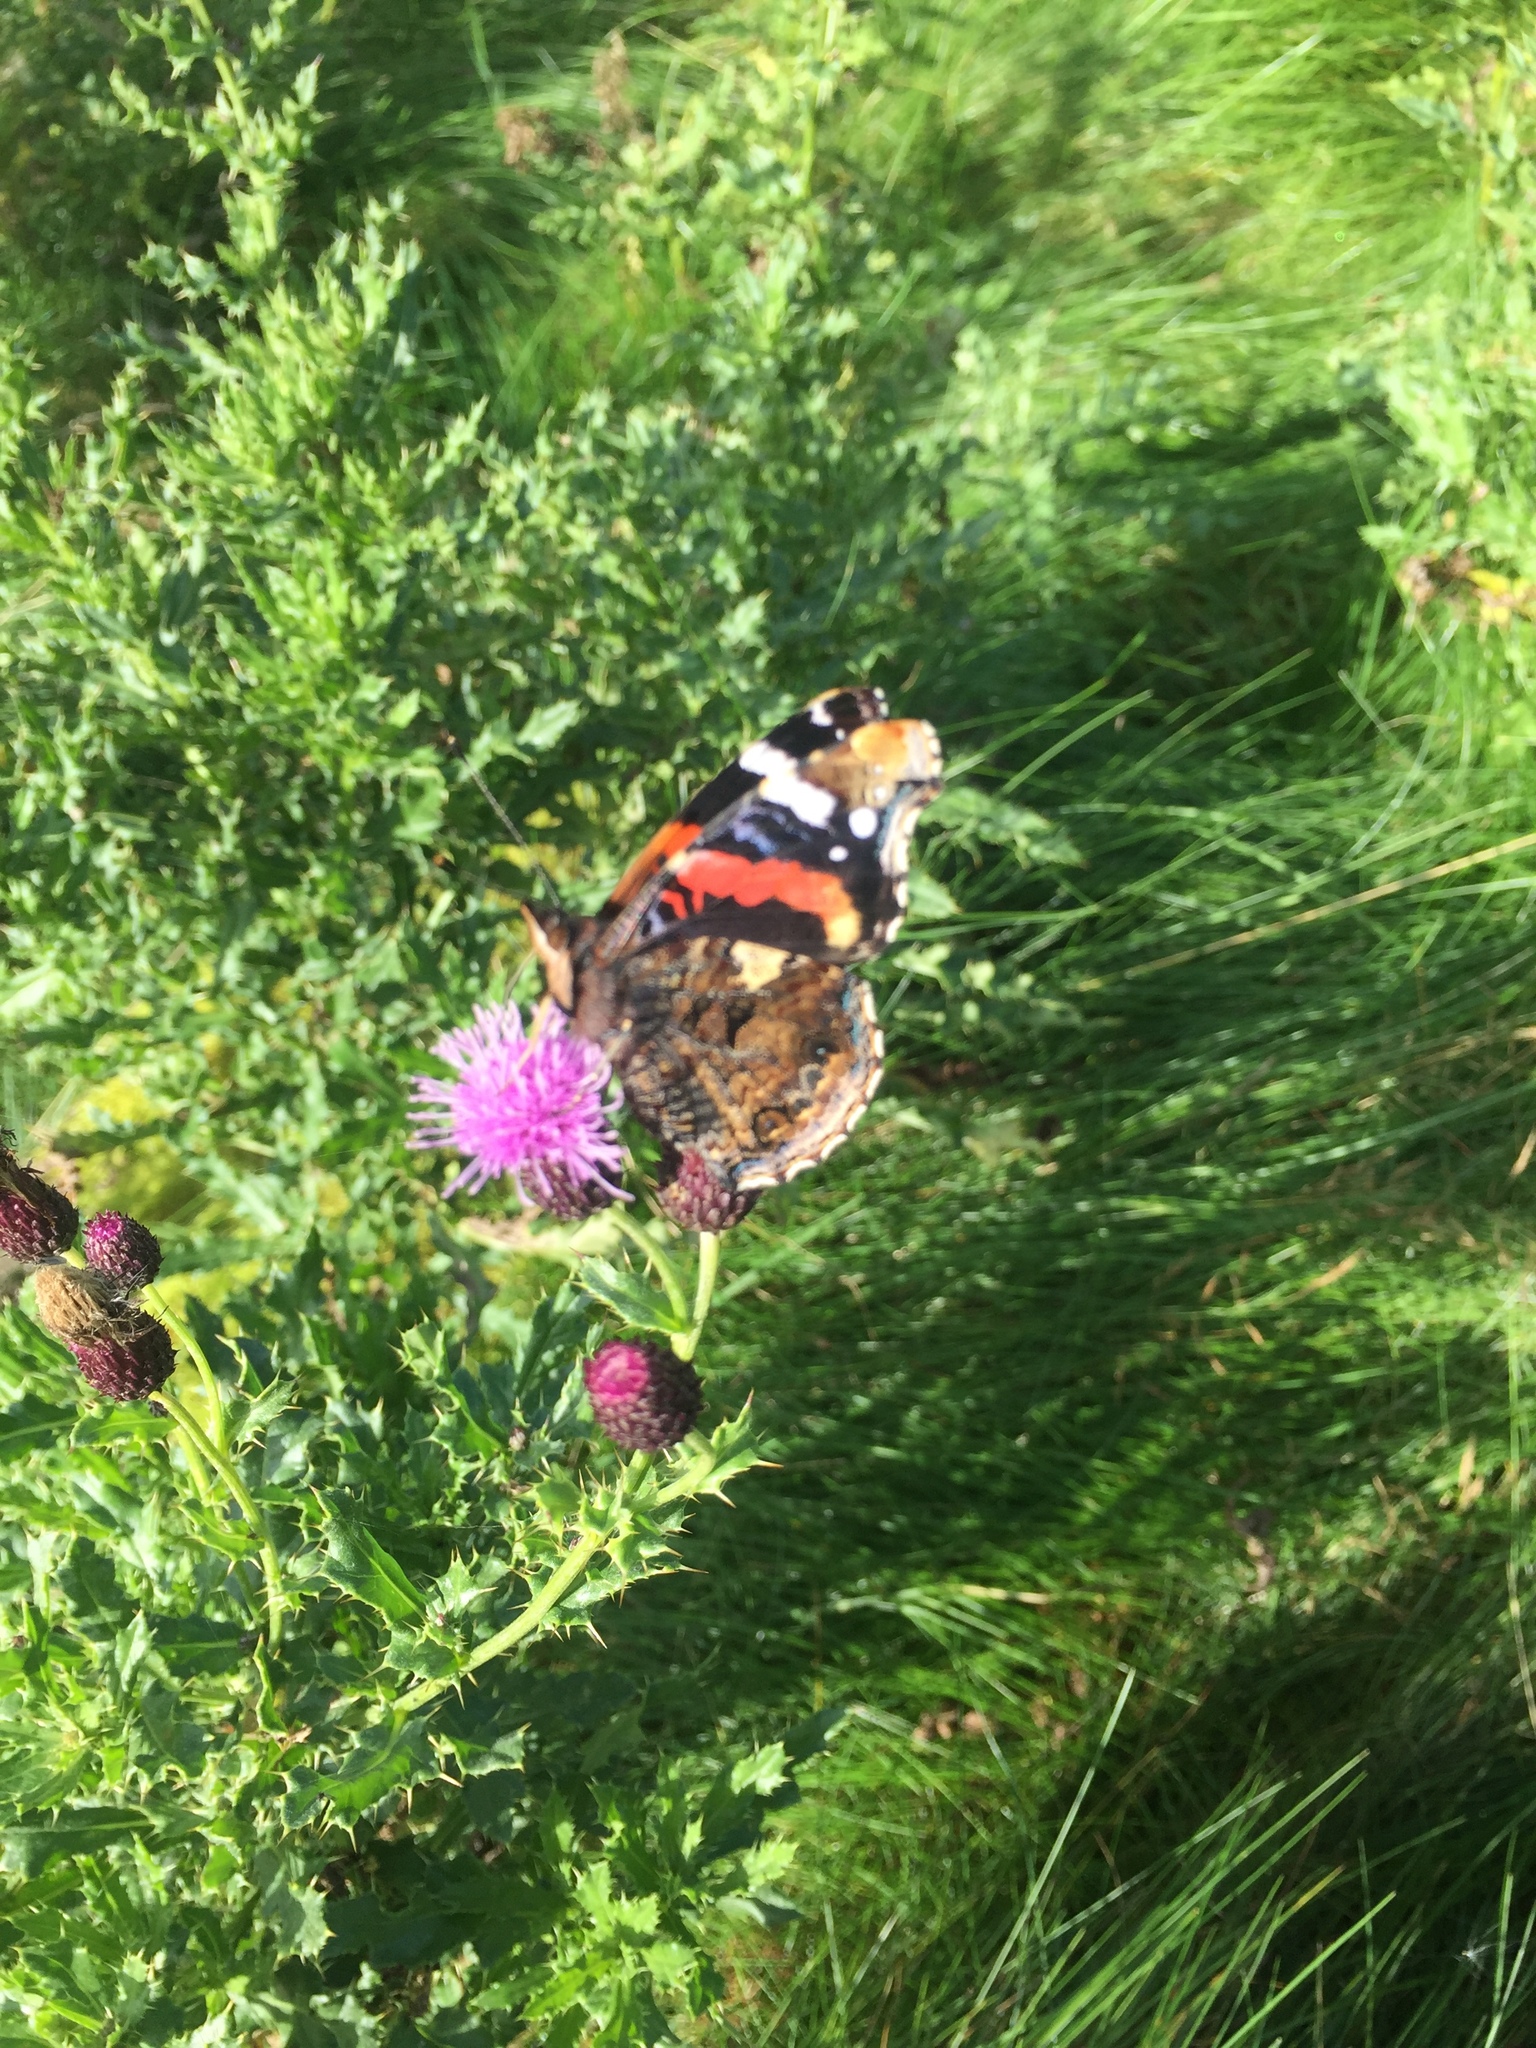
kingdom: Animalia
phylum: Arthropoda
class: Insecta
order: Lepidoptera
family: Nymphalidae
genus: Vanessa
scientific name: Vanessa atalanta
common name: Red admiral
